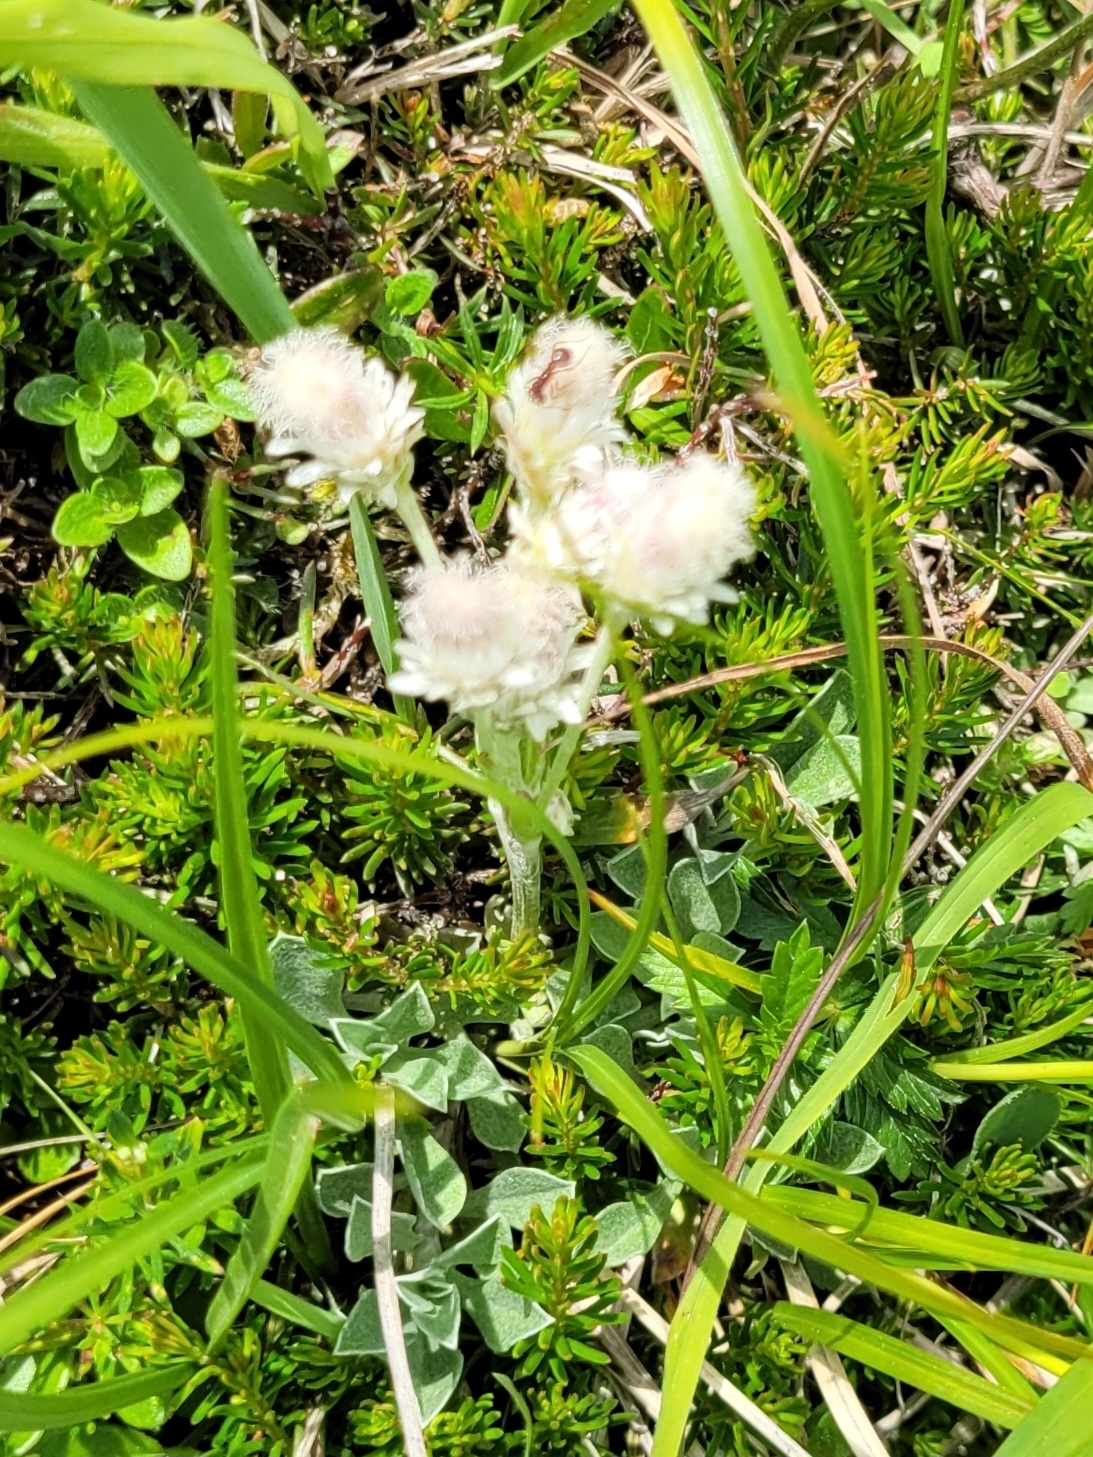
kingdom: Plantae
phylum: Tracheophyta
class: Magnoliopsida
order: Asterales
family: Asteraceae
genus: Antennaria
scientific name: Antennaria dioica
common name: Mountain everlasting
